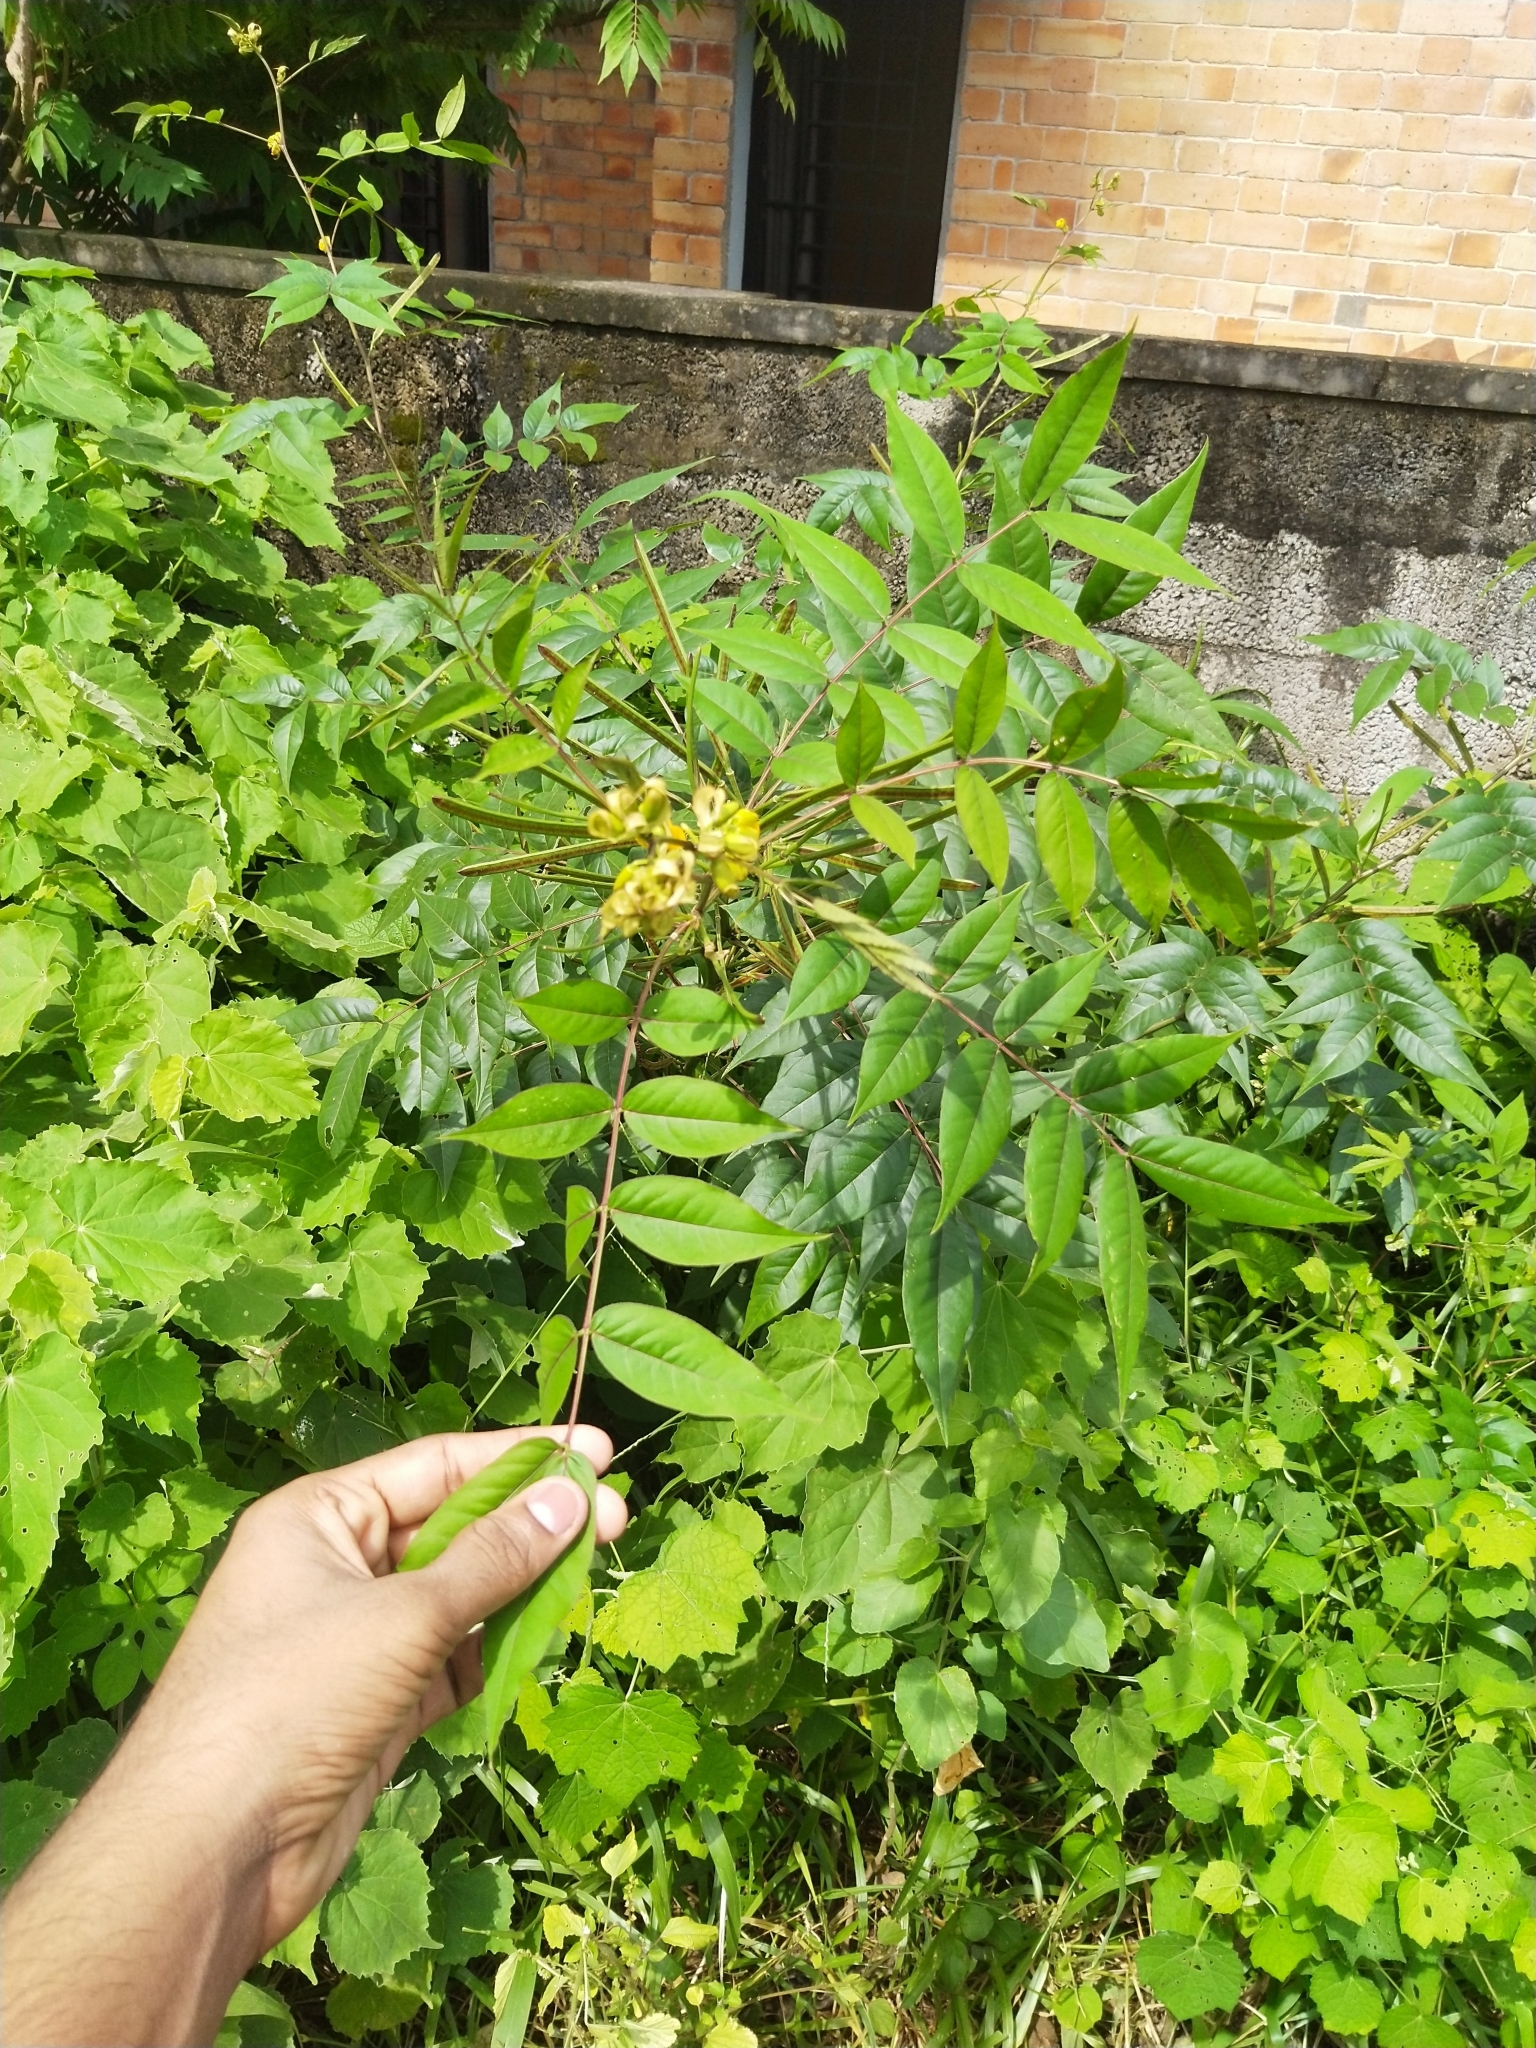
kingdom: Plantae
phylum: Tracheophyta
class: Magnoliopsida
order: Fabales
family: Fabaceae
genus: Senna
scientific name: Senna occidentalis
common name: Septicweed
